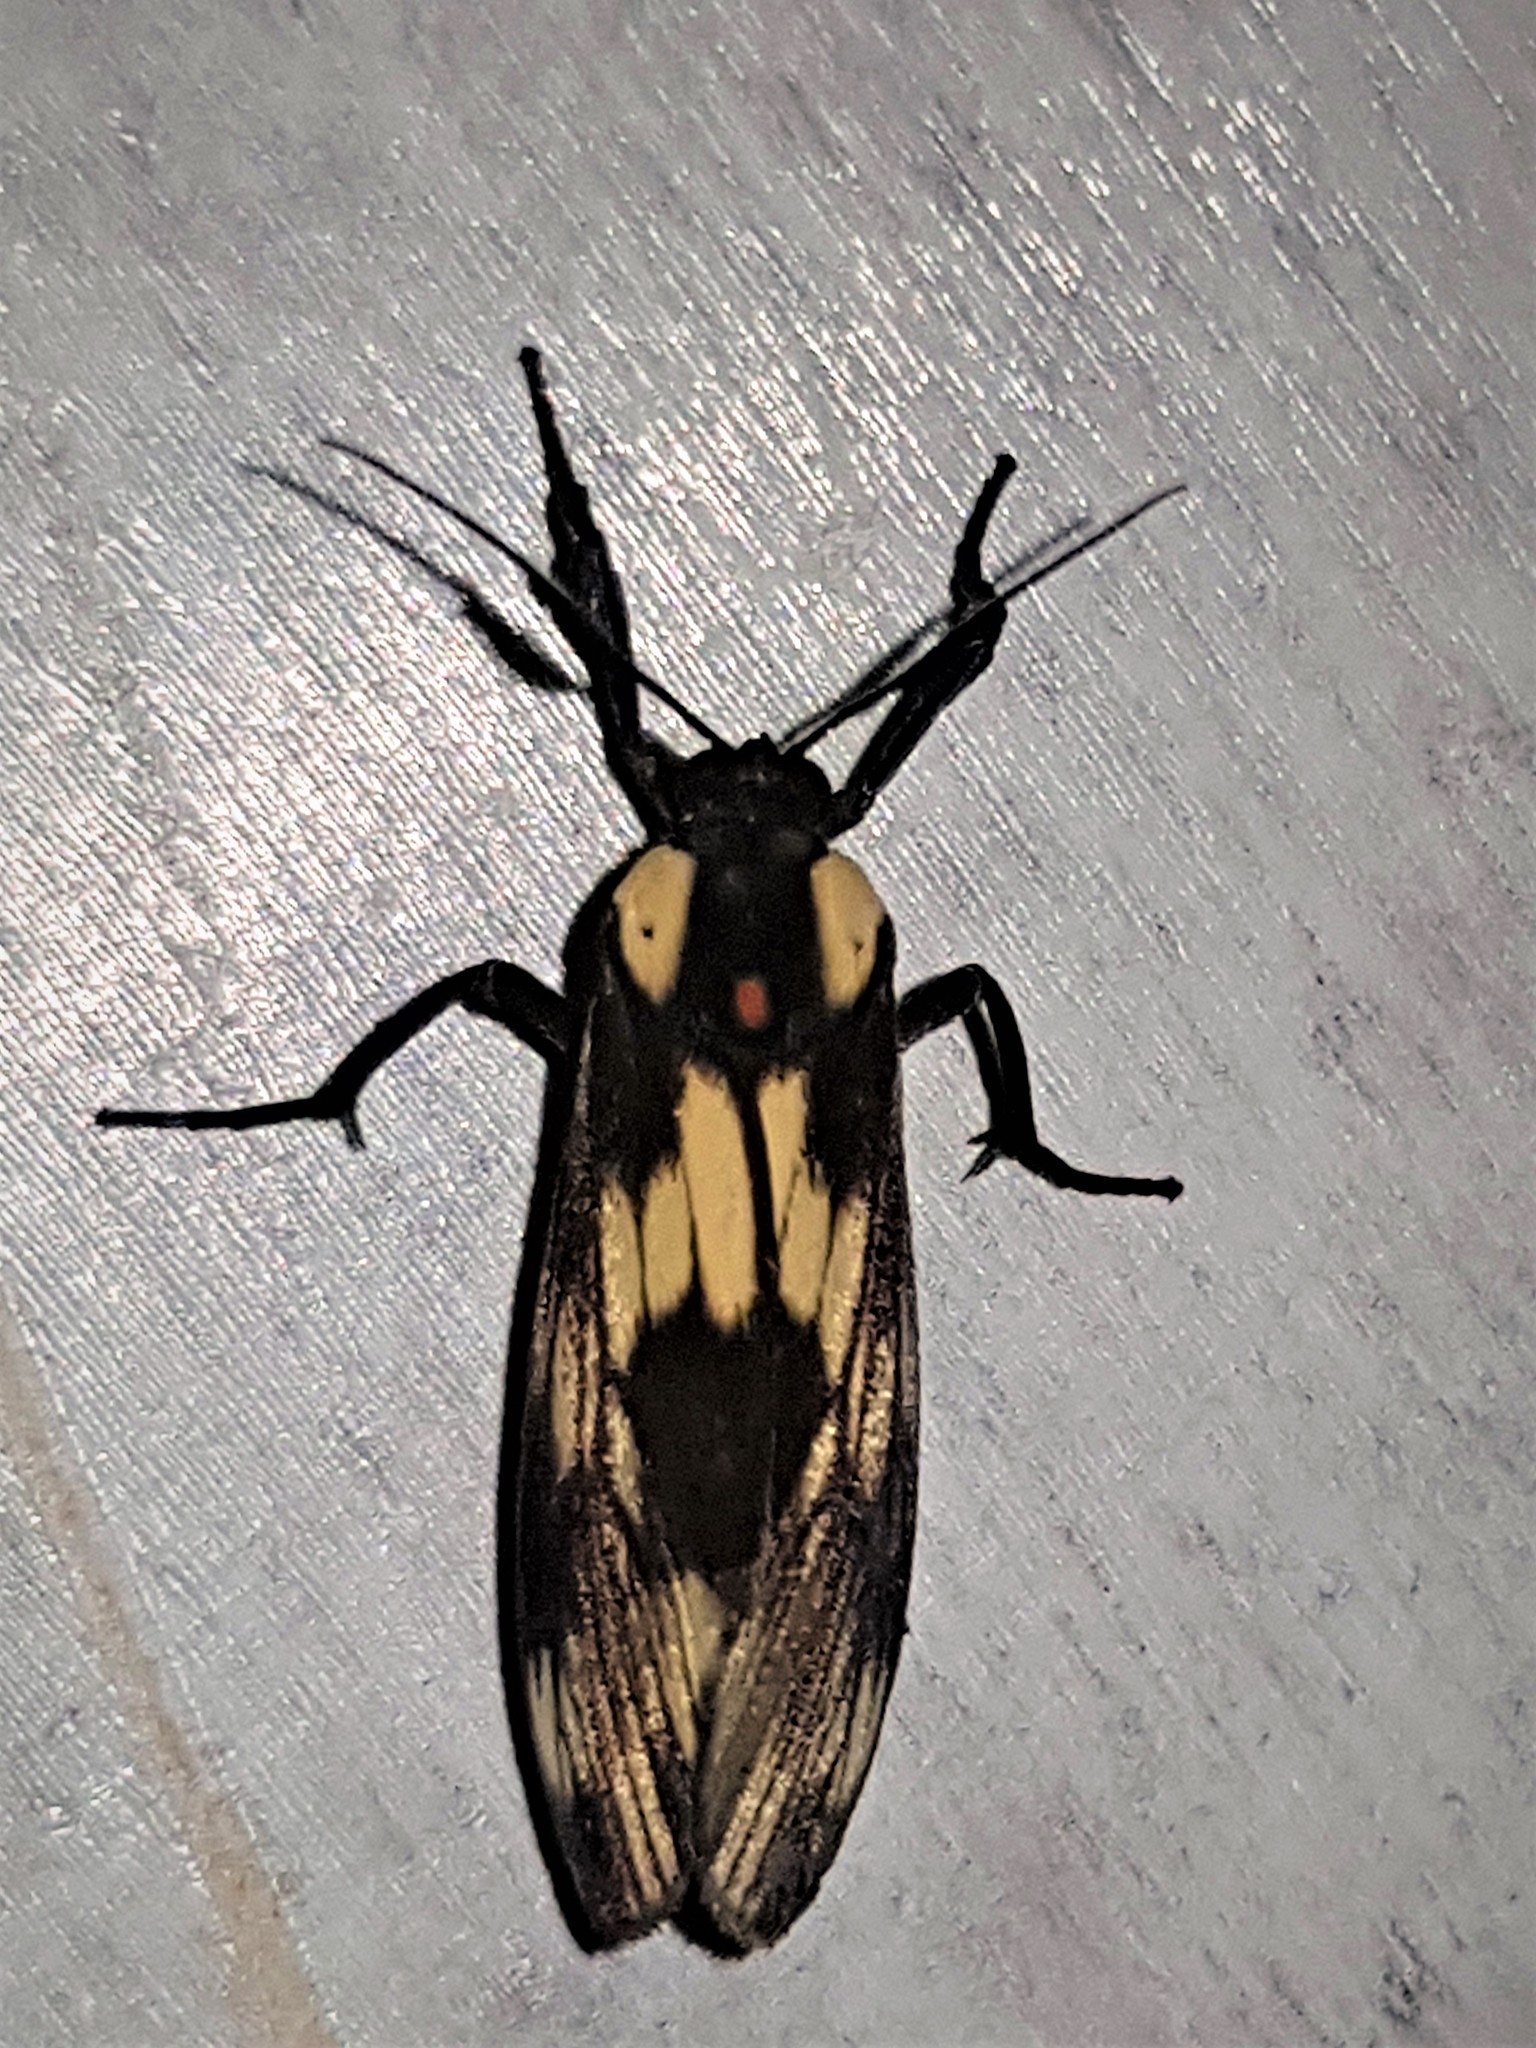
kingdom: Animalia
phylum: Arthropoda
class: Insecta
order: Lepidoptera
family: Erebidae
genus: Ardonea
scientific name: Ardonea tenebrosa
